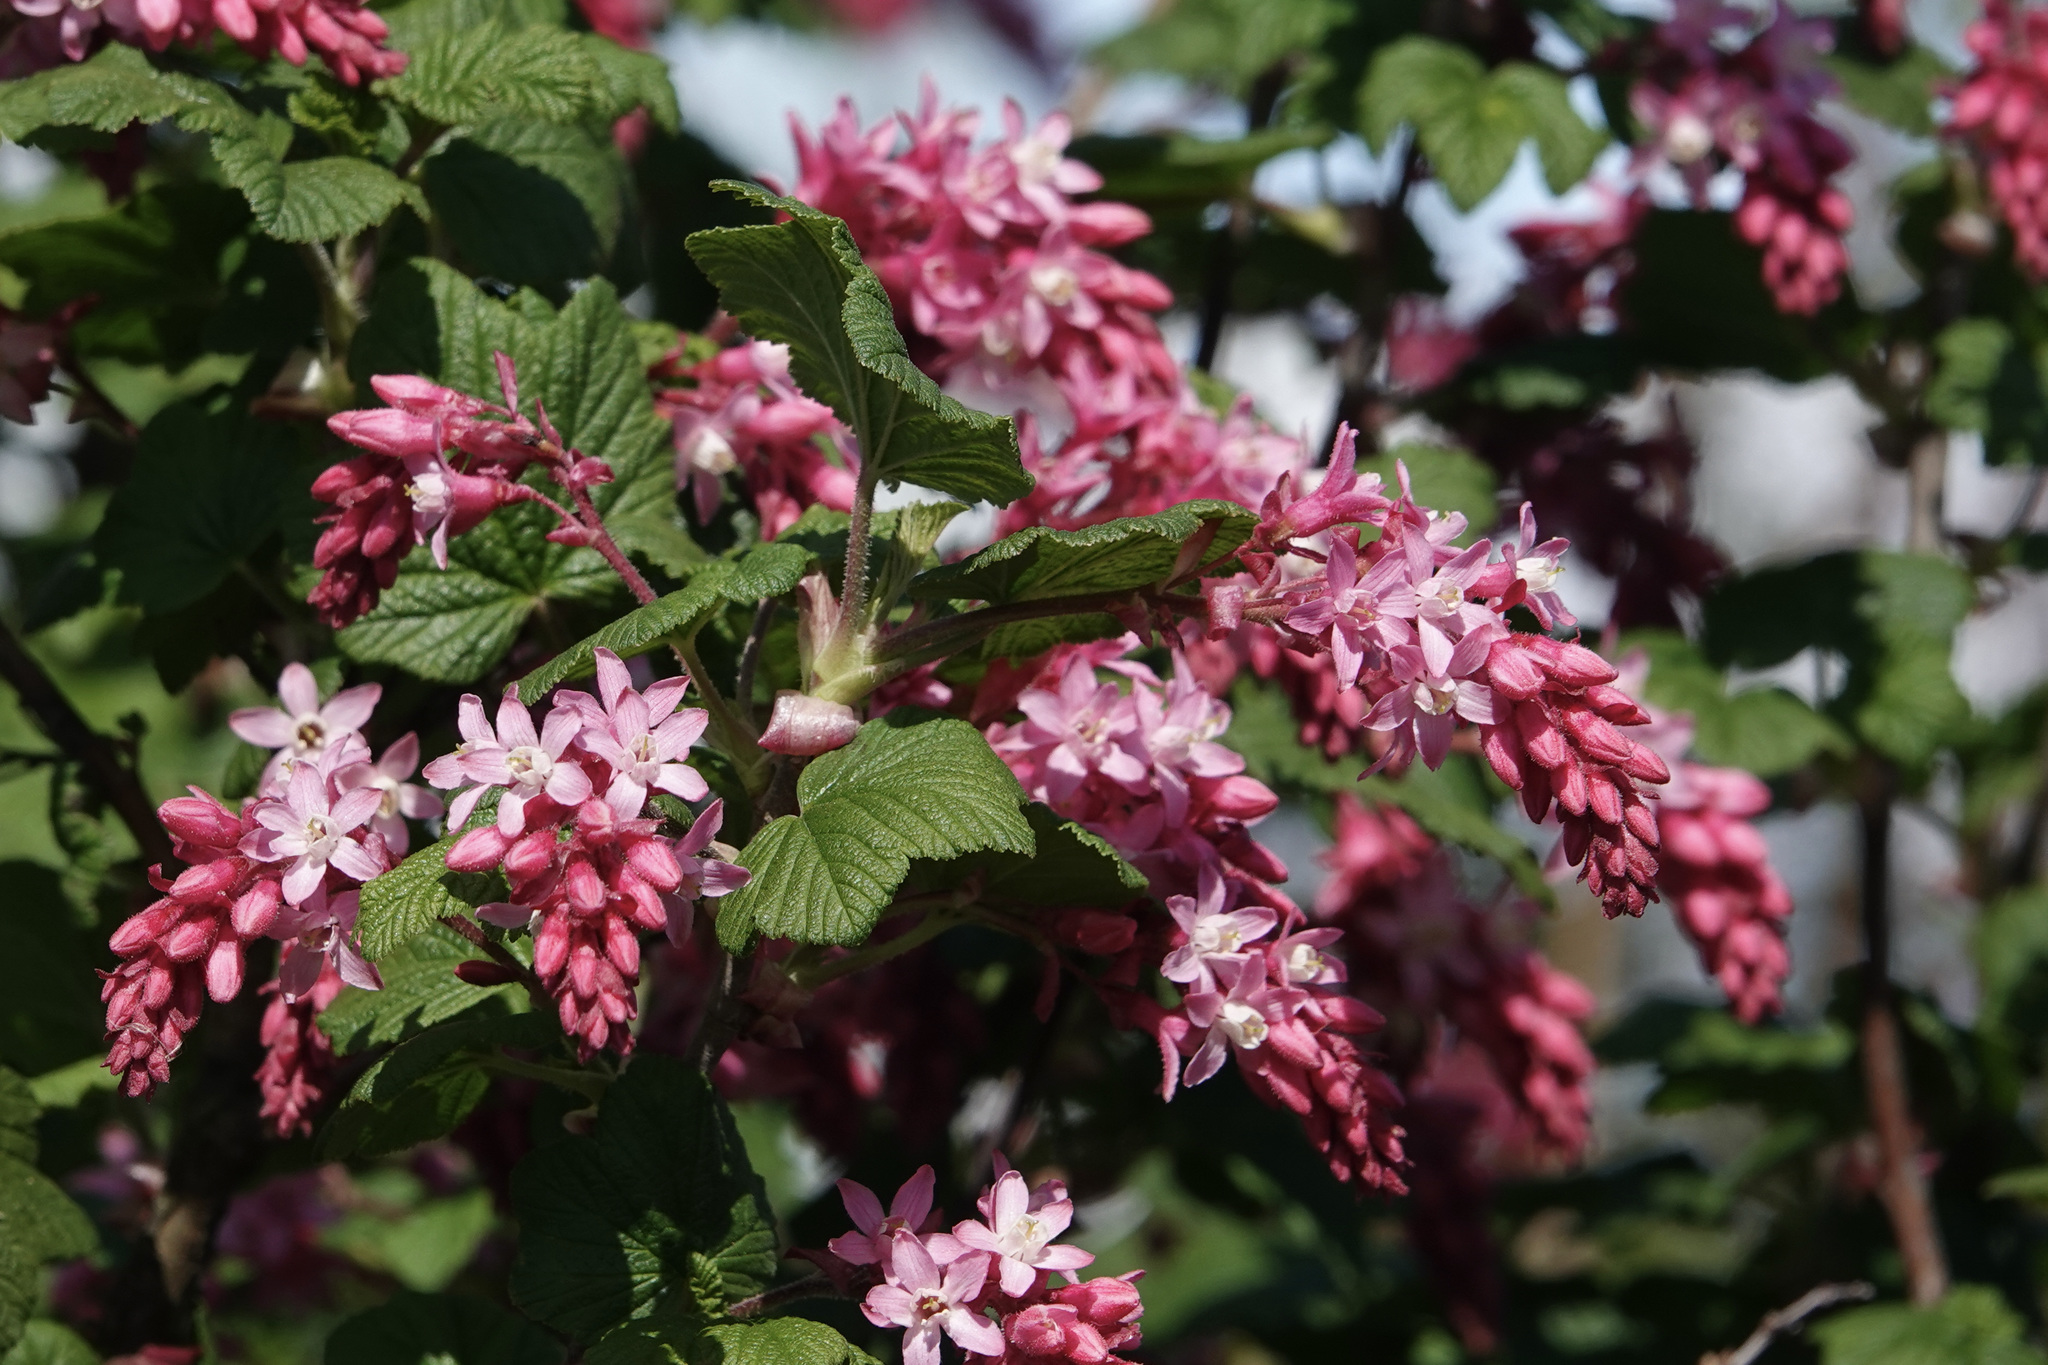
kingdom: Plantae
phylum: Tracheophyta
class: Magnoliopsida
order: Saxifragales
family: Grossulariaceae
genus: Ribes
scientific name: Ribes sanguineum
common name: Flowering currant
